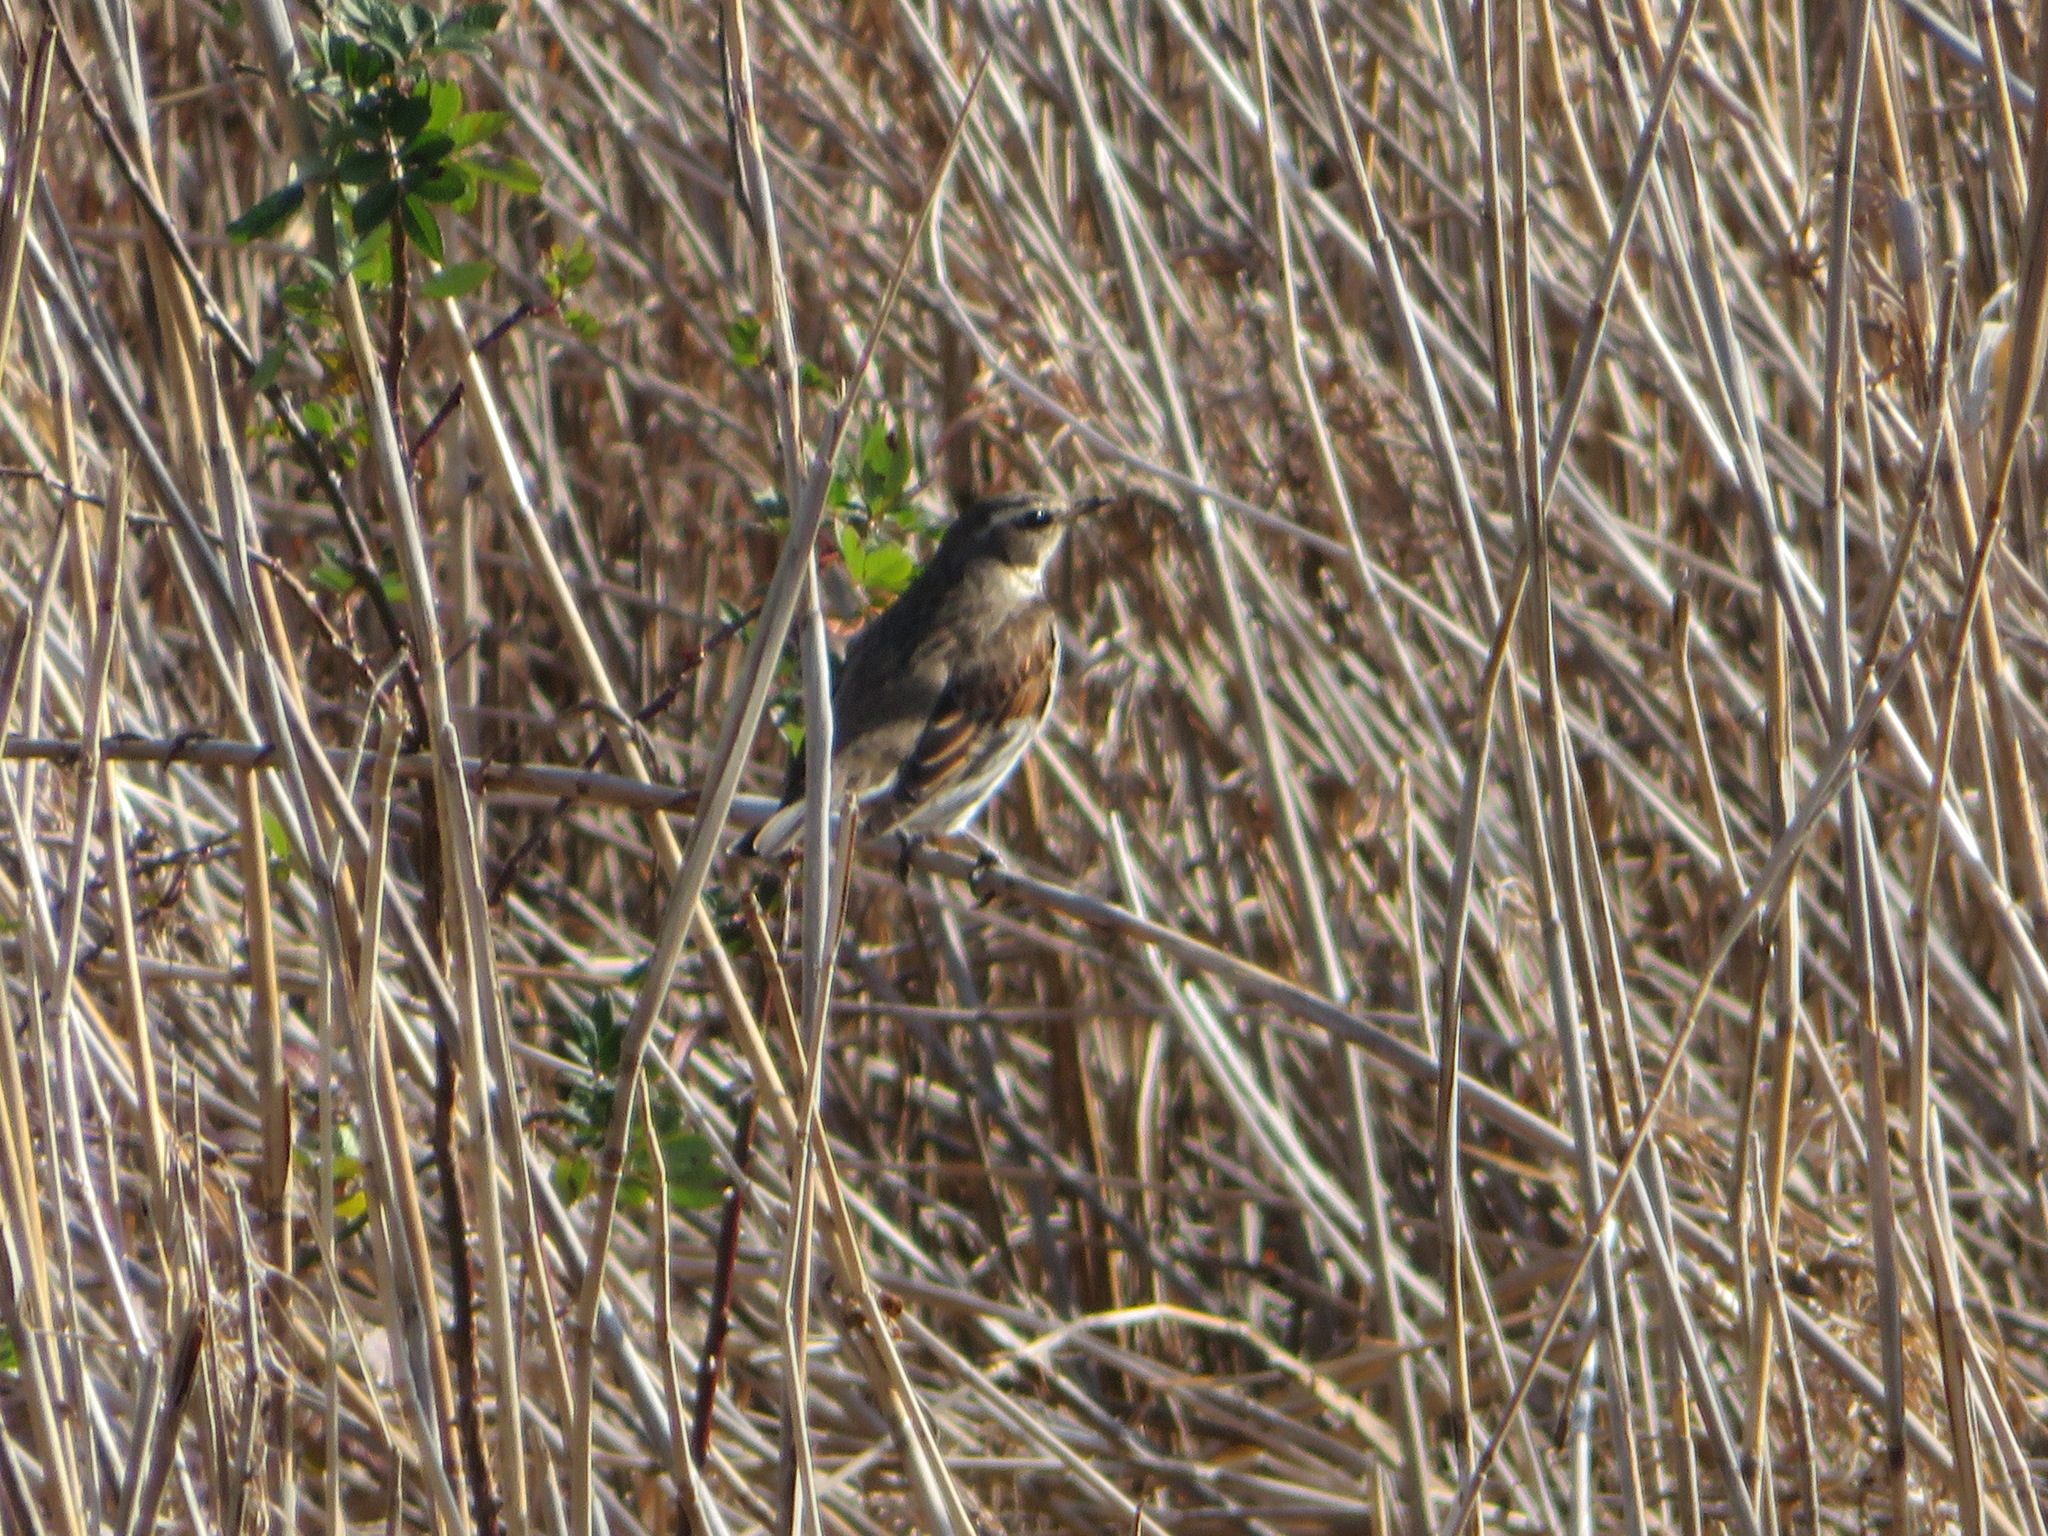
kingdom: Animalia
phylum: Chordata
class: Aves
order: Passeriformes
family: Turdidae
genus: Turdus
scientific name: Turdus eunomus
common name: Dusky thrush
